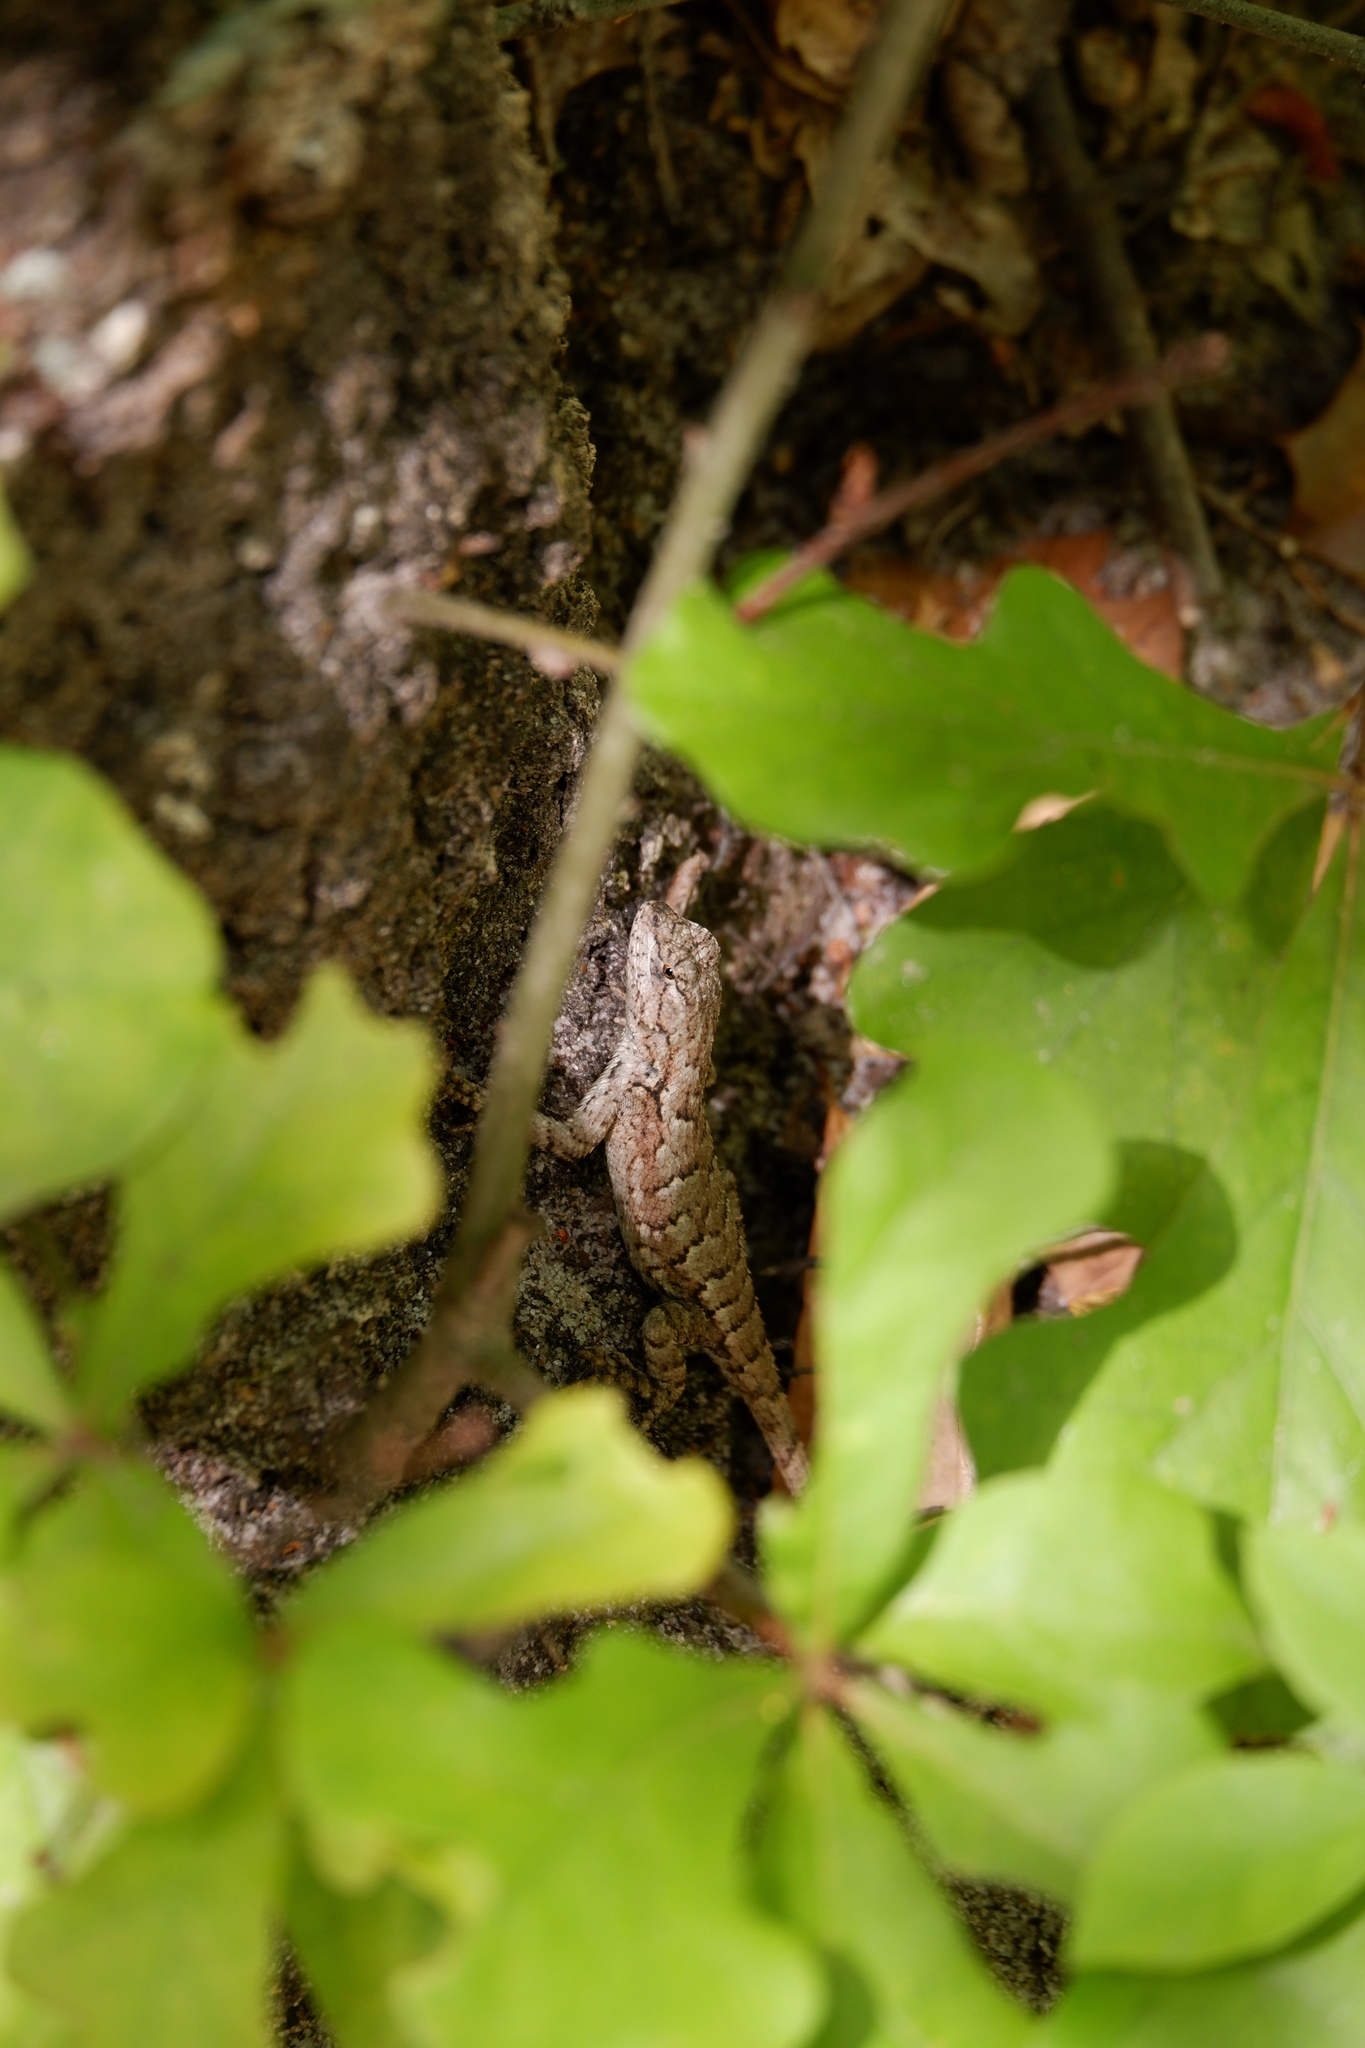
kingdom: Animalia
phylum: Chordata
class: Squamata
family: Phrynosomatidae
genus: Sceloporus
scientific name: Sceloporus undulatus
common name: Eastern fence lizard
